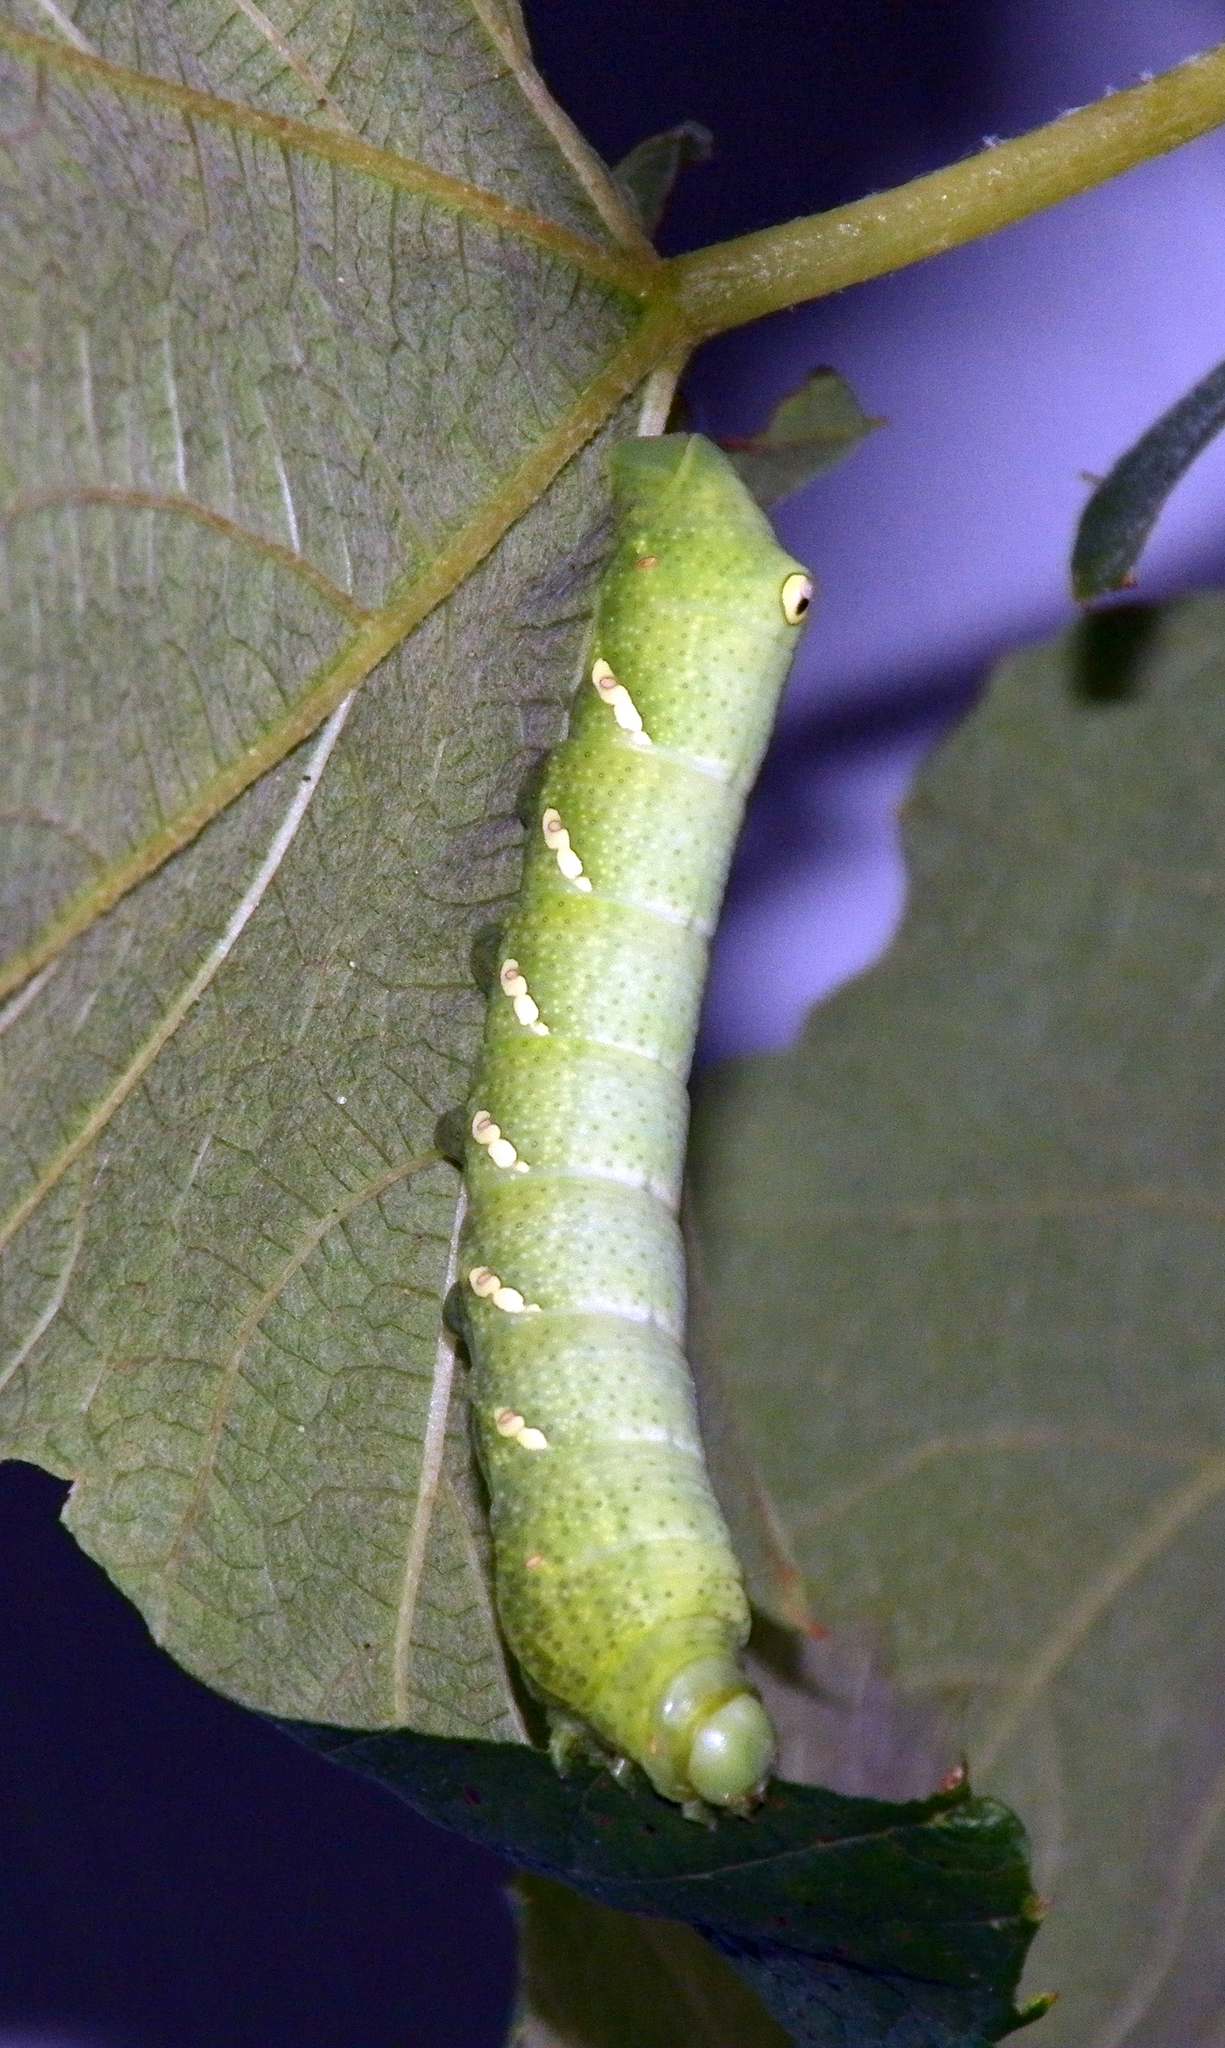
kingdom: Animalia
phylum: Arthropoda
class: Insecta
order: Lepidoptera
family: Sphingidae
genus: Eumorpha
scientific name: Eumorpha achemon
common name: Achemon sphinx
